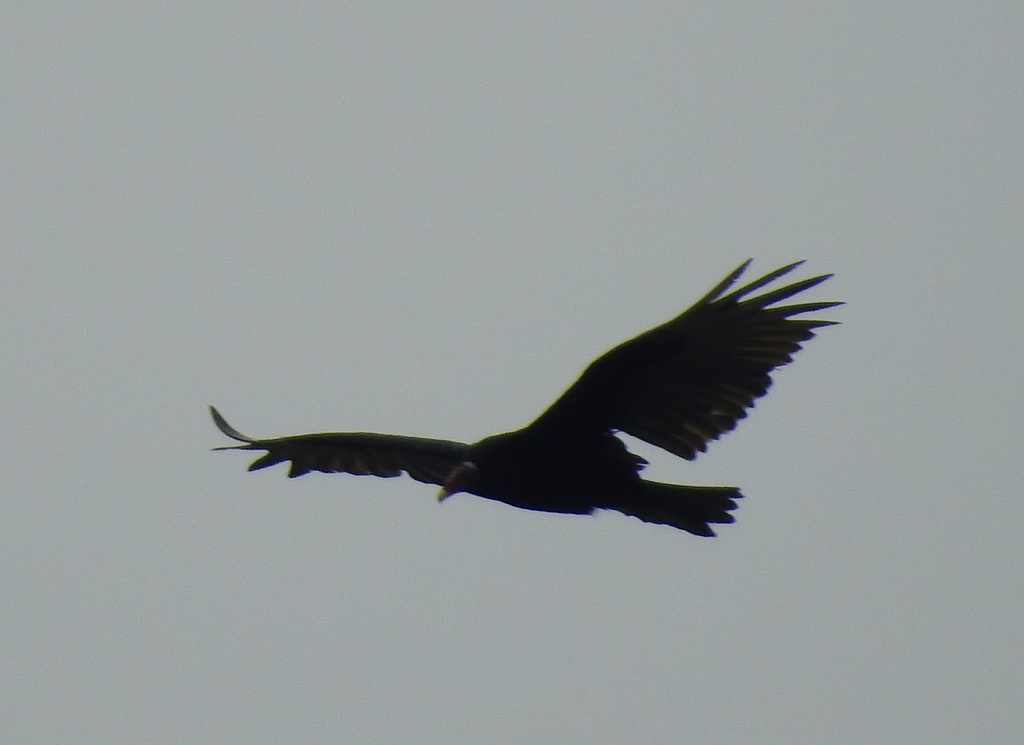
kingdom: Animalia
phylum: Chordata
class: Aves
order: Accipitriformes
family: Cathartidae
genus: Cathartes
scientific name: Cathartes aura
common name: Turkey vulture
